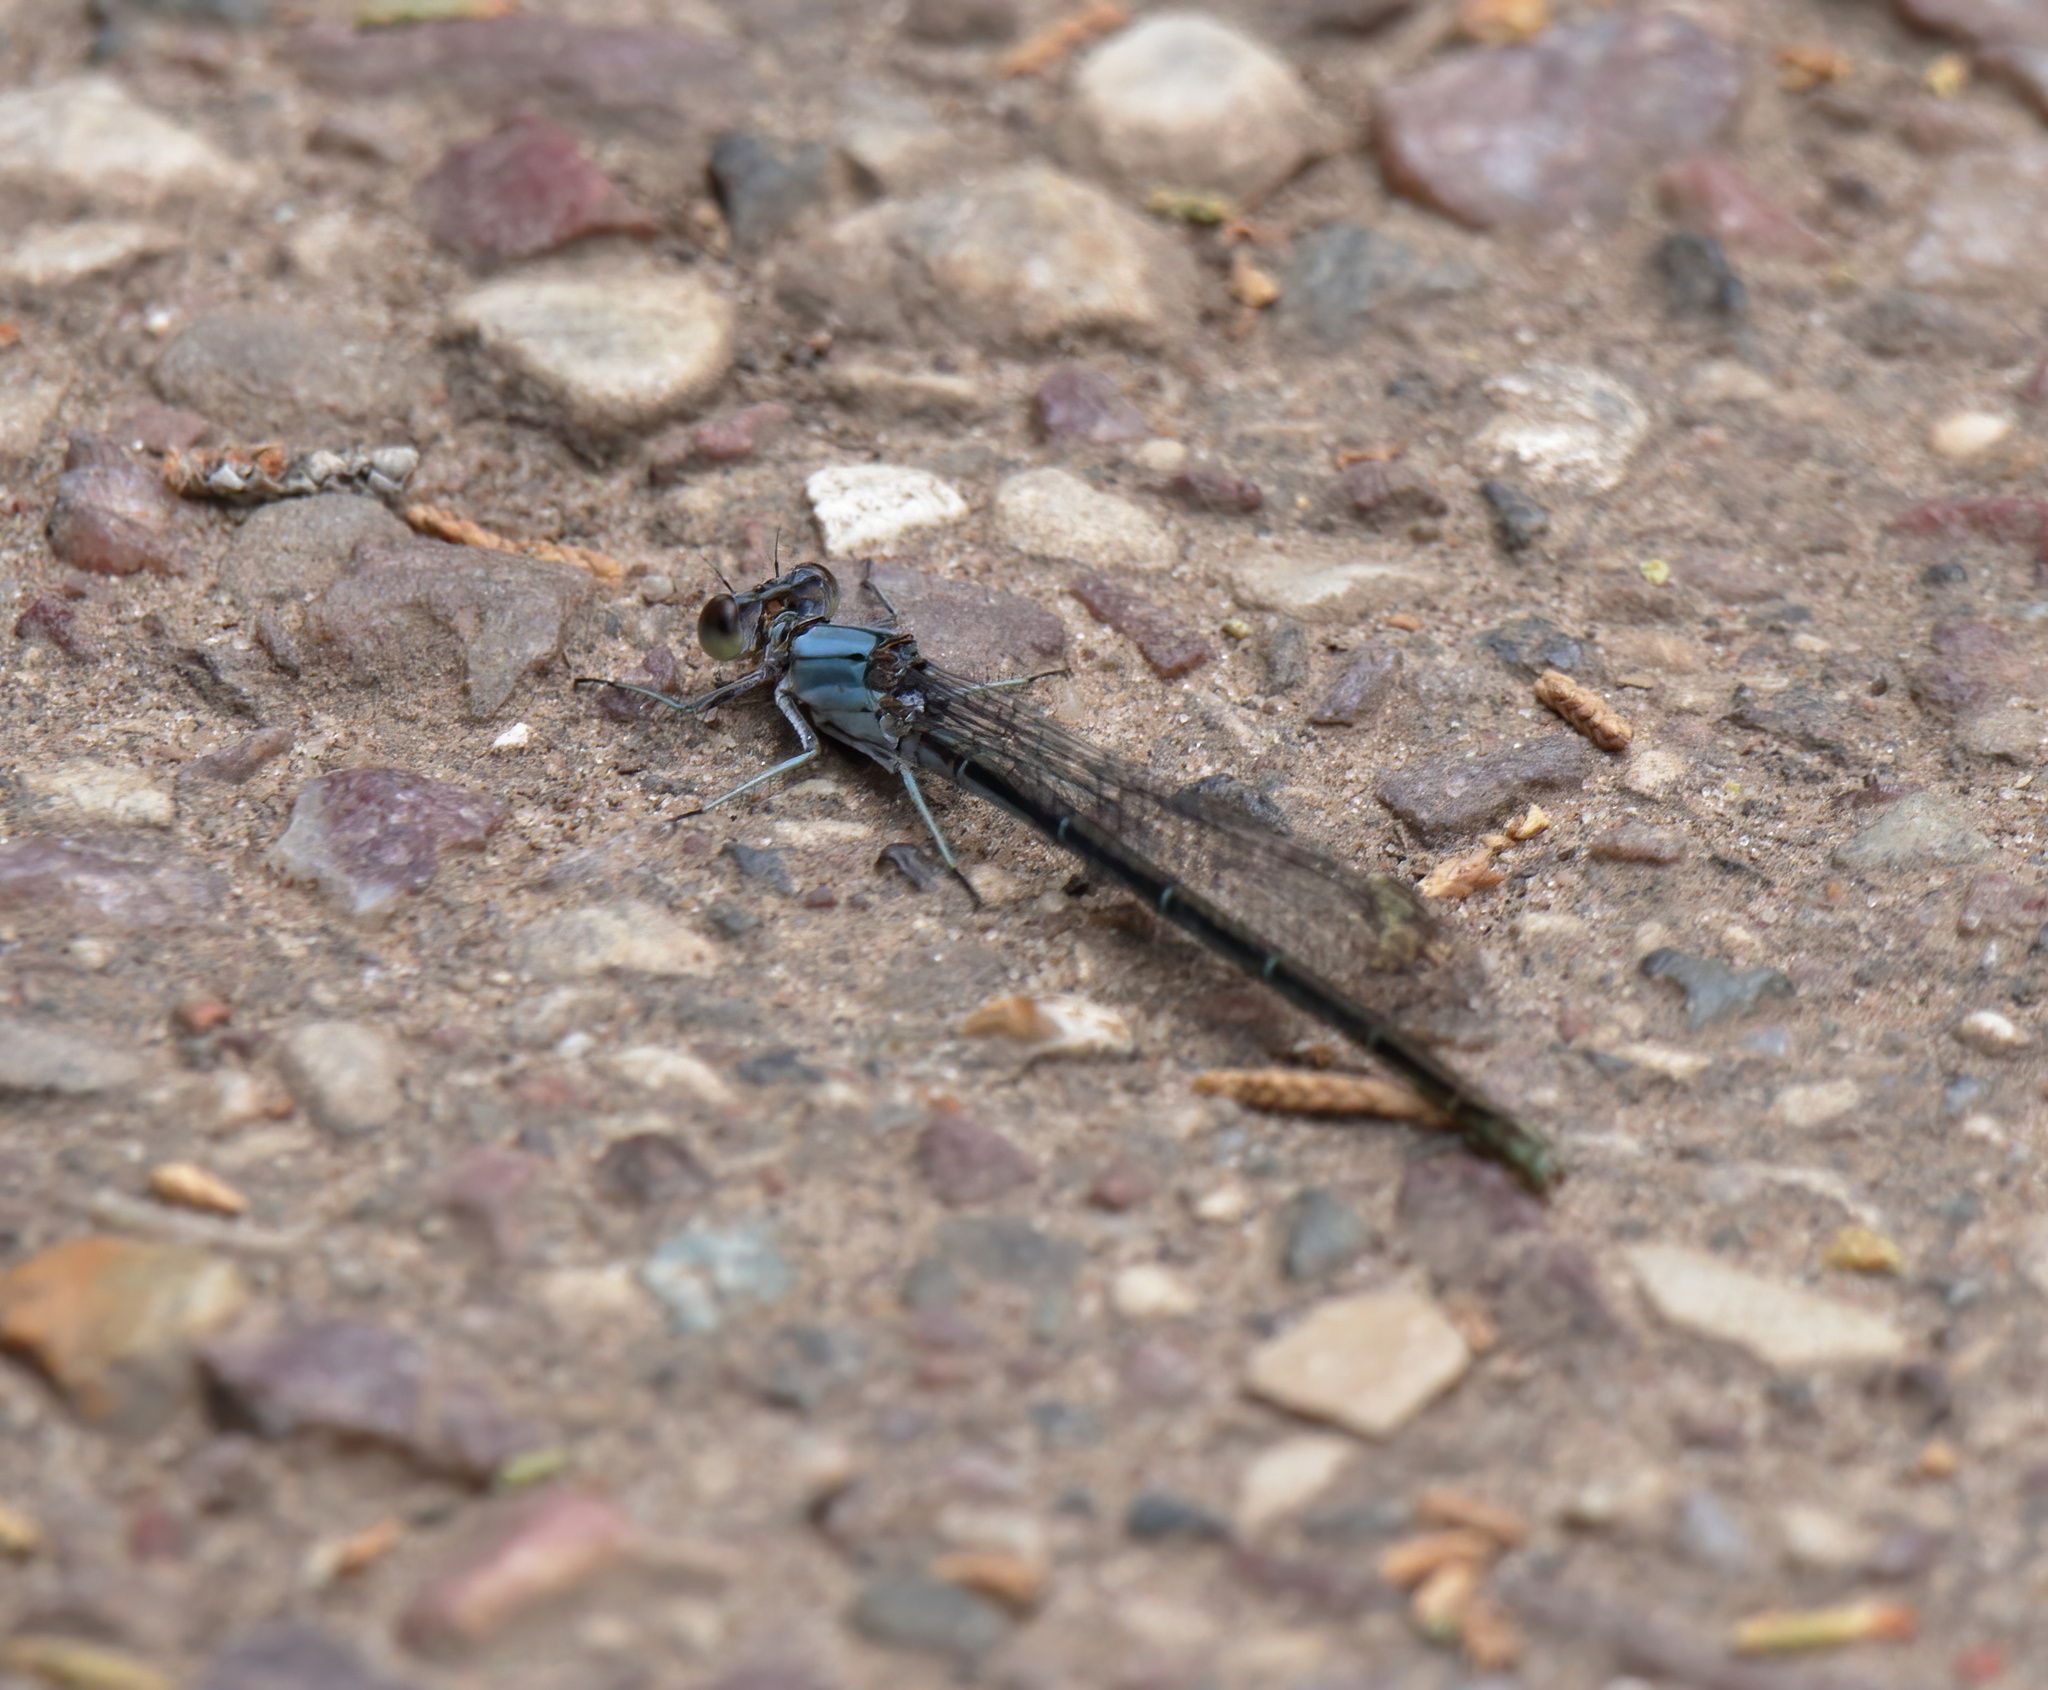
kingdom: Animalia
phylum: Arthropoda
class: Insecta
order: Odonata
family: Coenagrionidae
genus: Argia
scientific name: Argia moesta
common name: Powdered dancer
